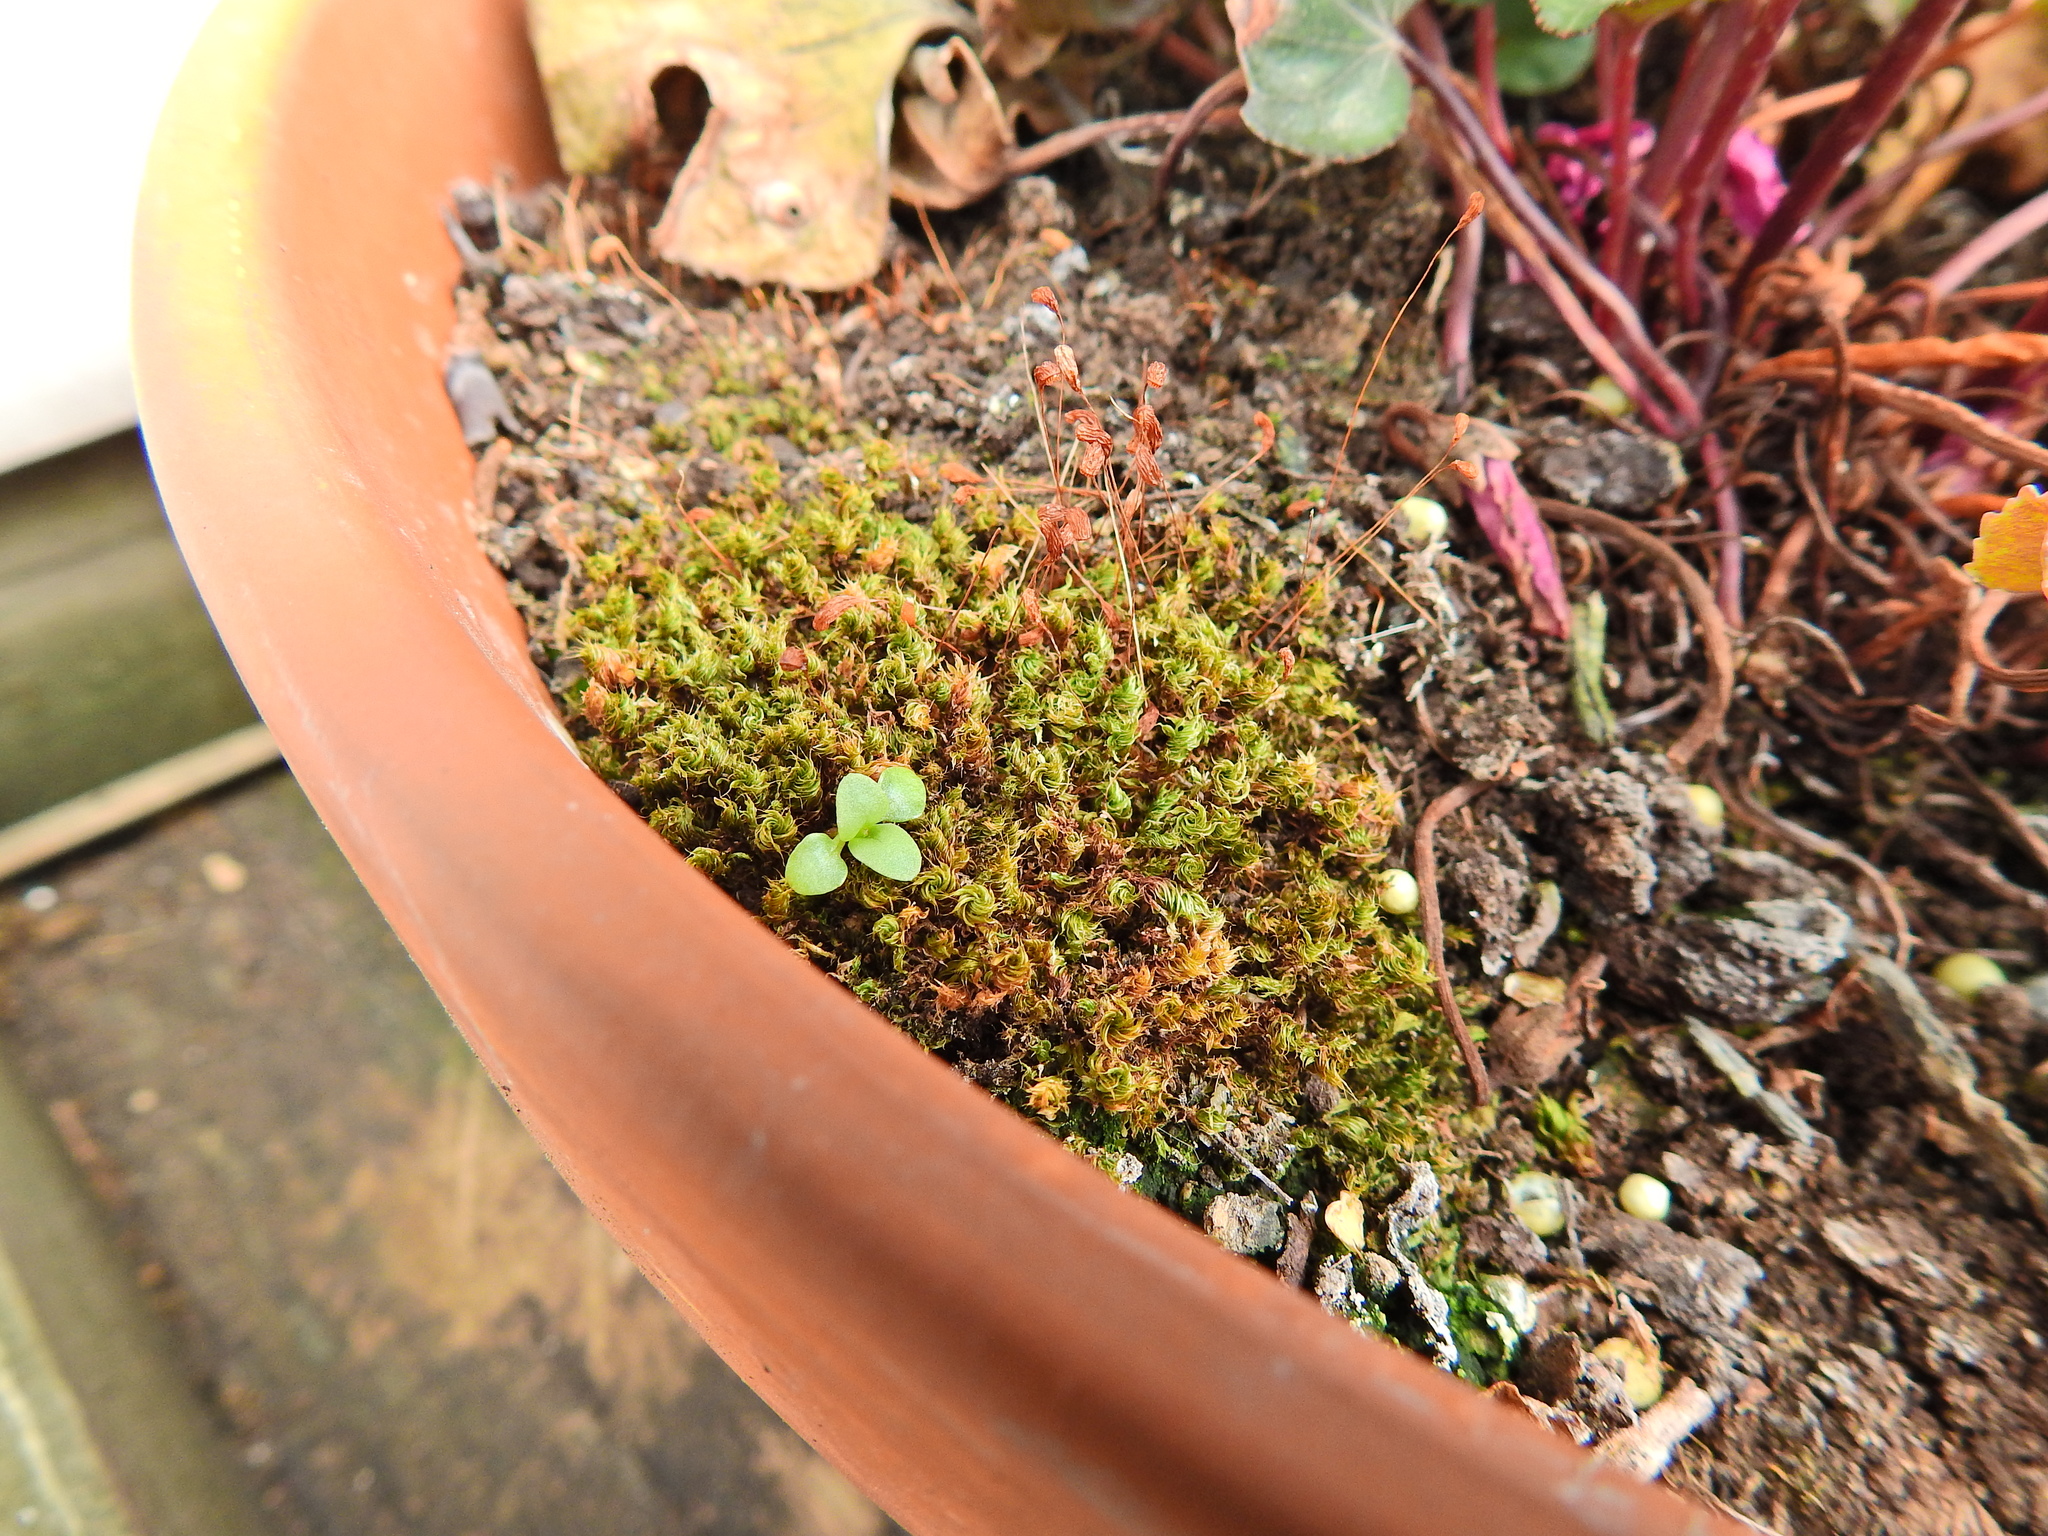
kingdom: Plantae
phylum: Bryophyta
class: Bryopsida
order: Funariales
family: Funariaceae
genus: Funaria
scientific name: Funaria hygrometrica
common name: Common cord moss
